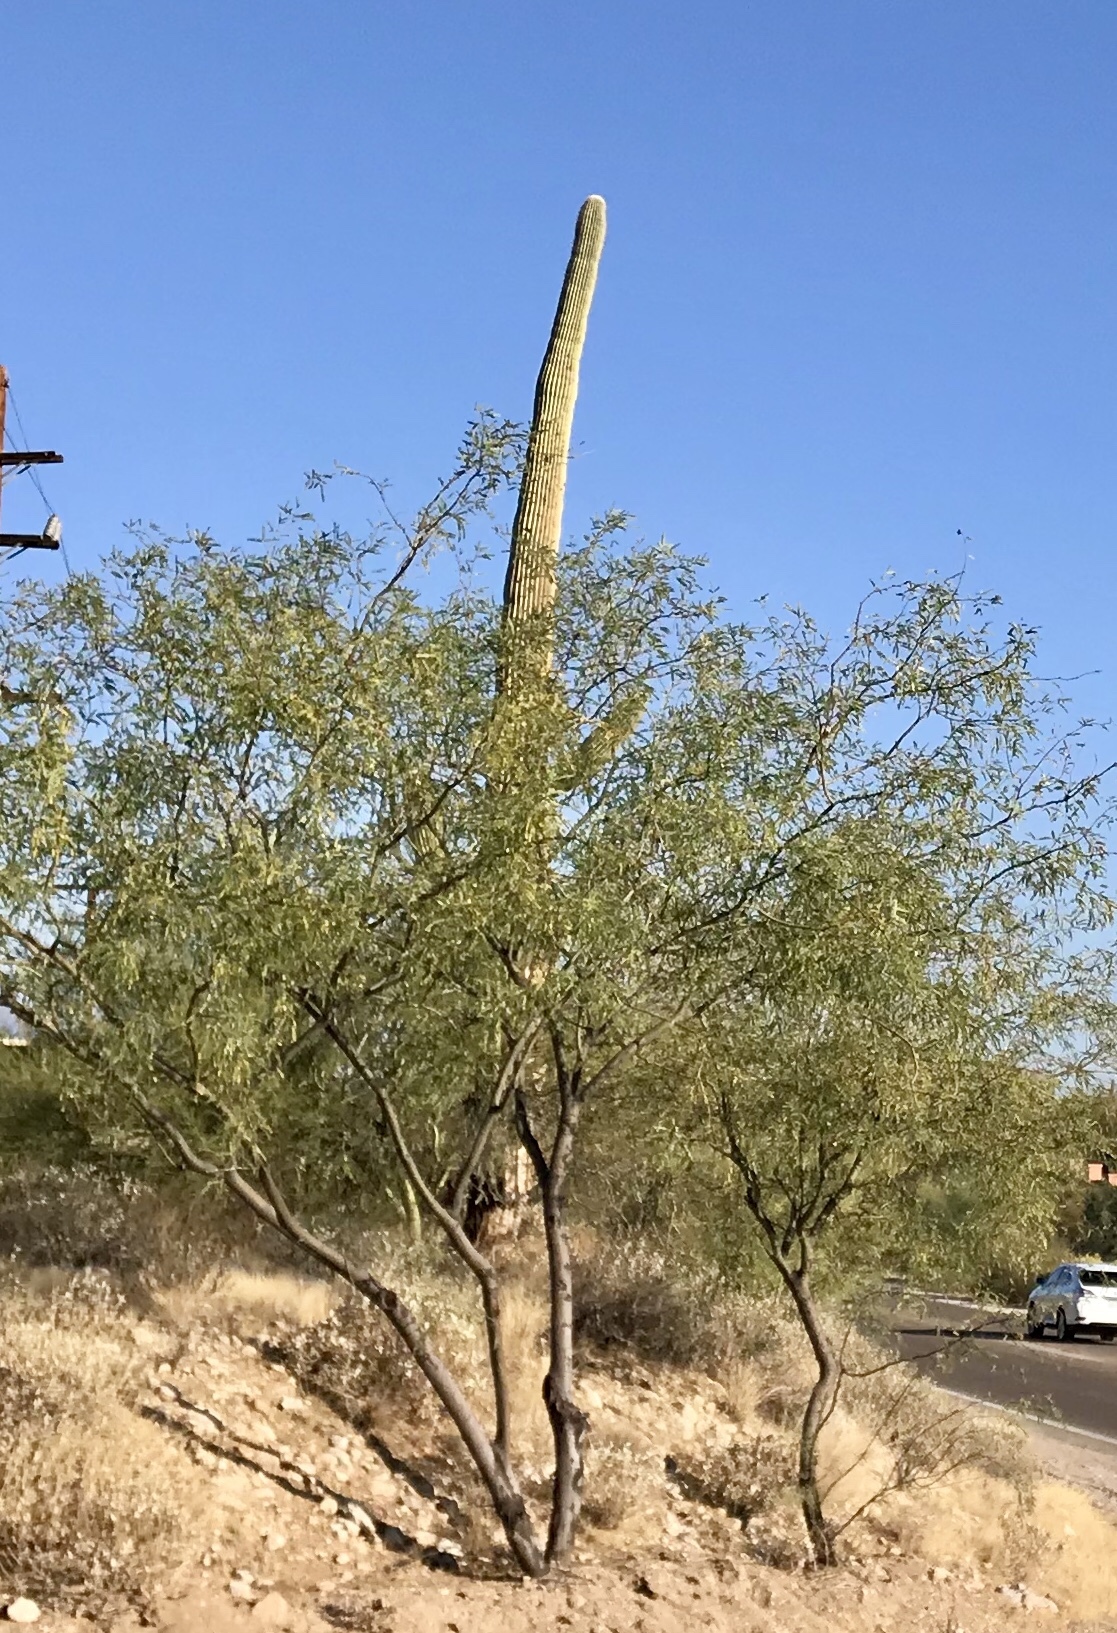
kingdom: Plantae
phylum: Tracheophyta
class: Magnoliopsida
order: Caryophyllales
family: Cactaceae
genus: Carnegiea
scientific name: Carnegiea gigantea
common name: Saguaro
